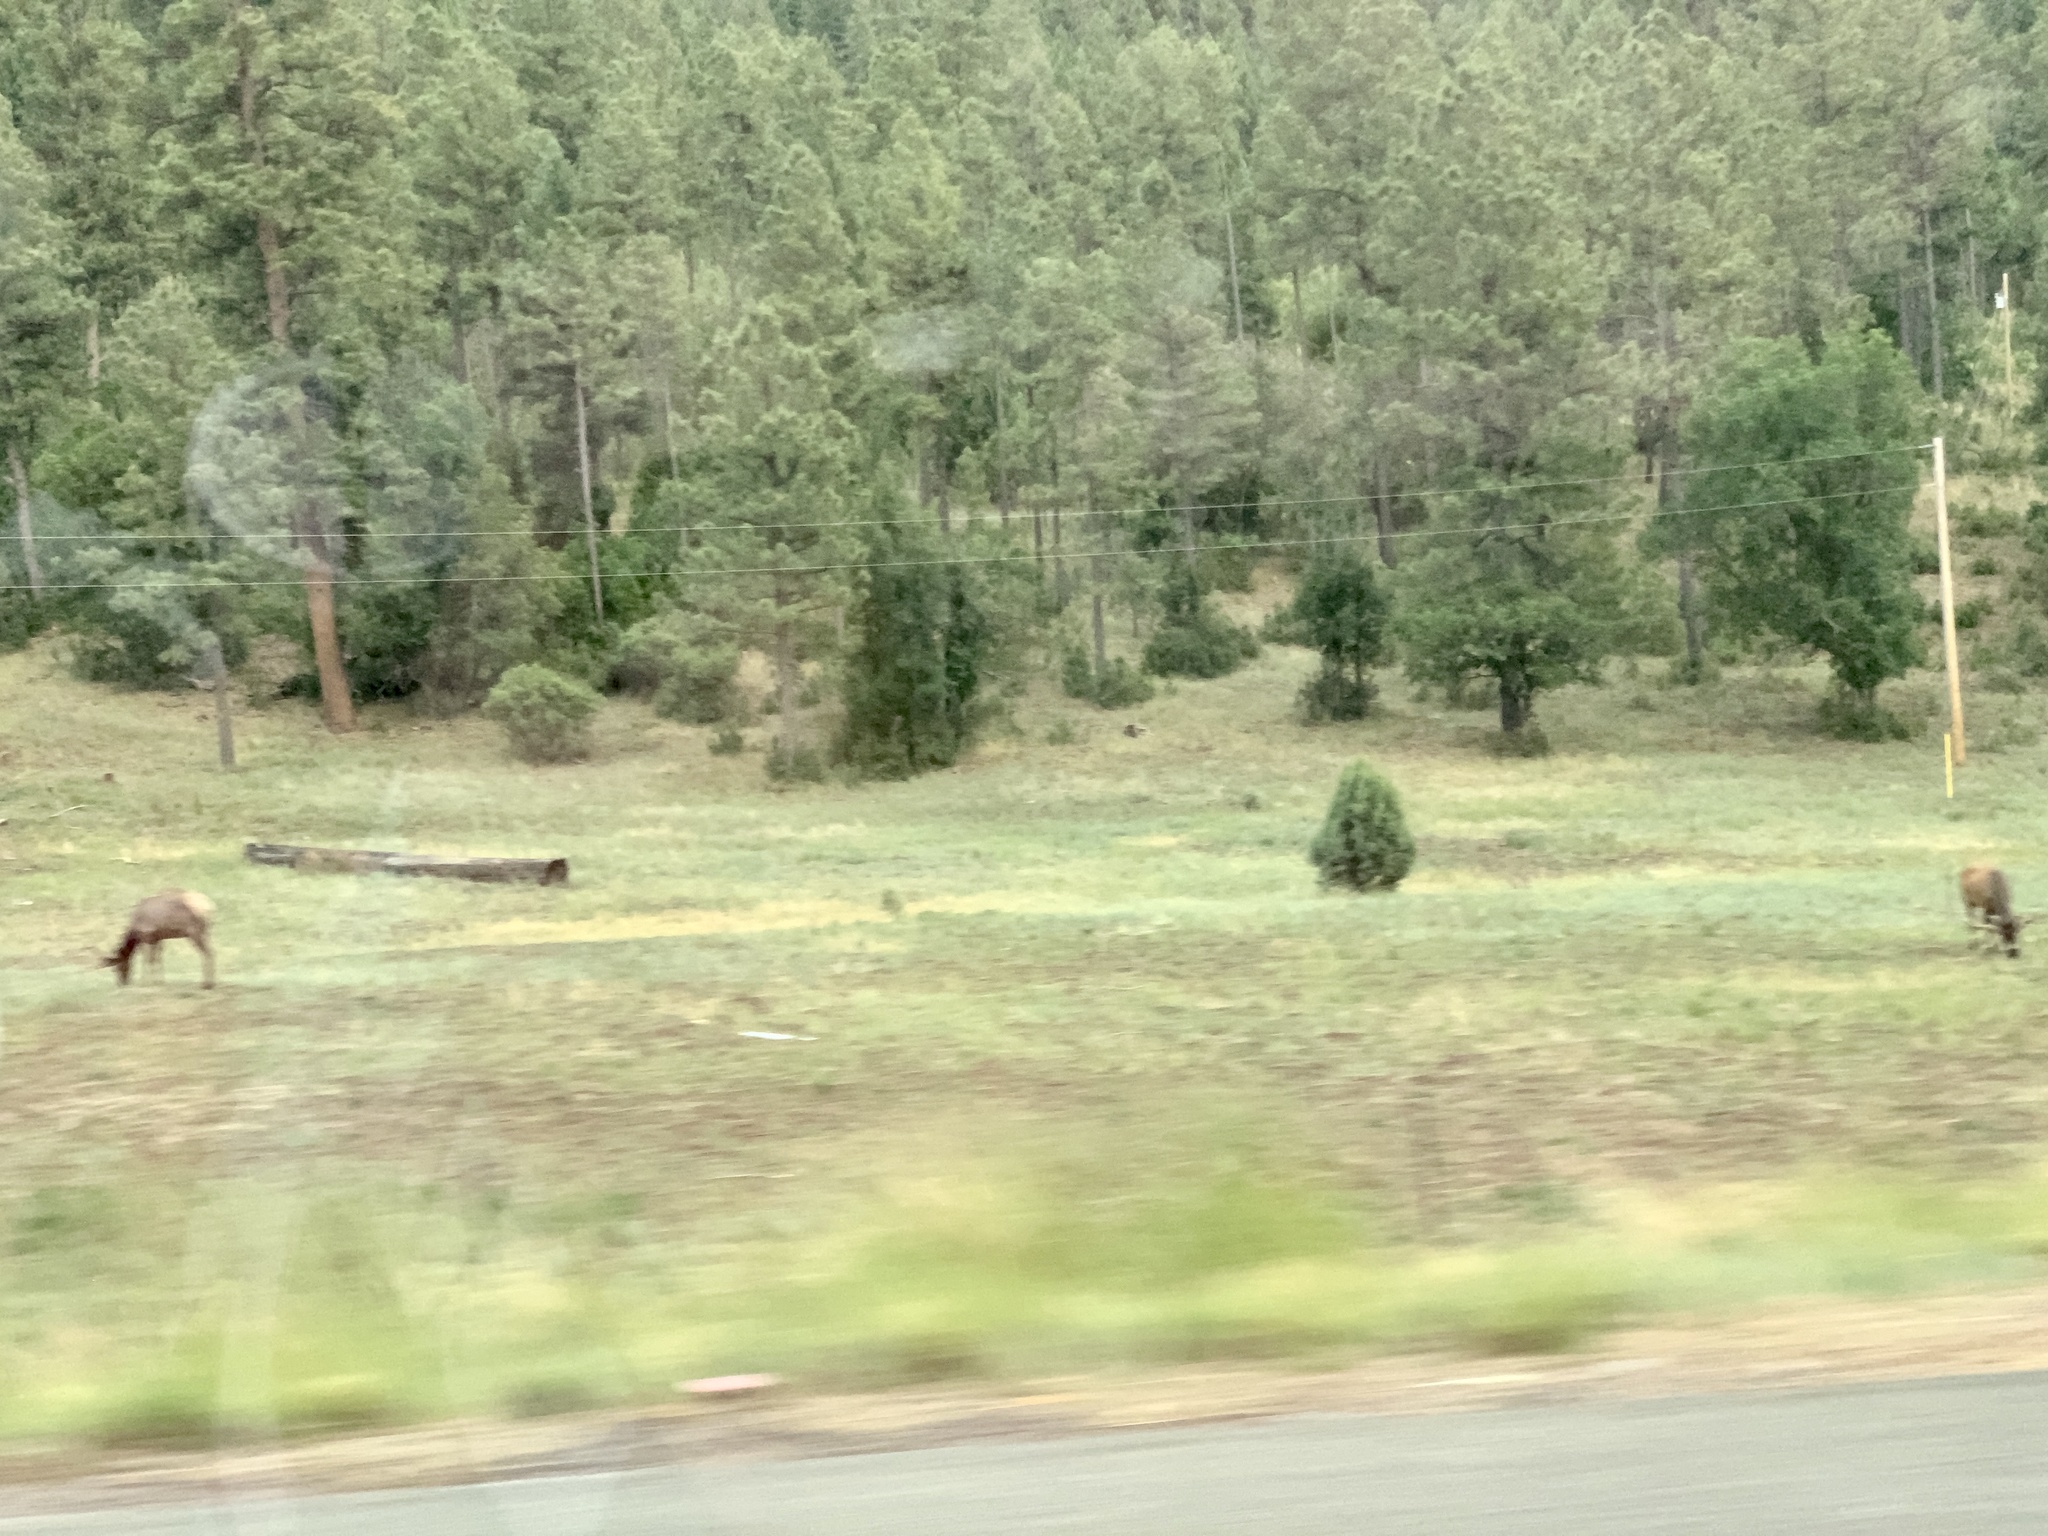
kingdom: Animalia
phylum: Chordata
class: Mammalia
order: Artiodactyla
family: Cervidae
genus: Cervus
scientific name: Cervus elaphus
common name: Red deer
